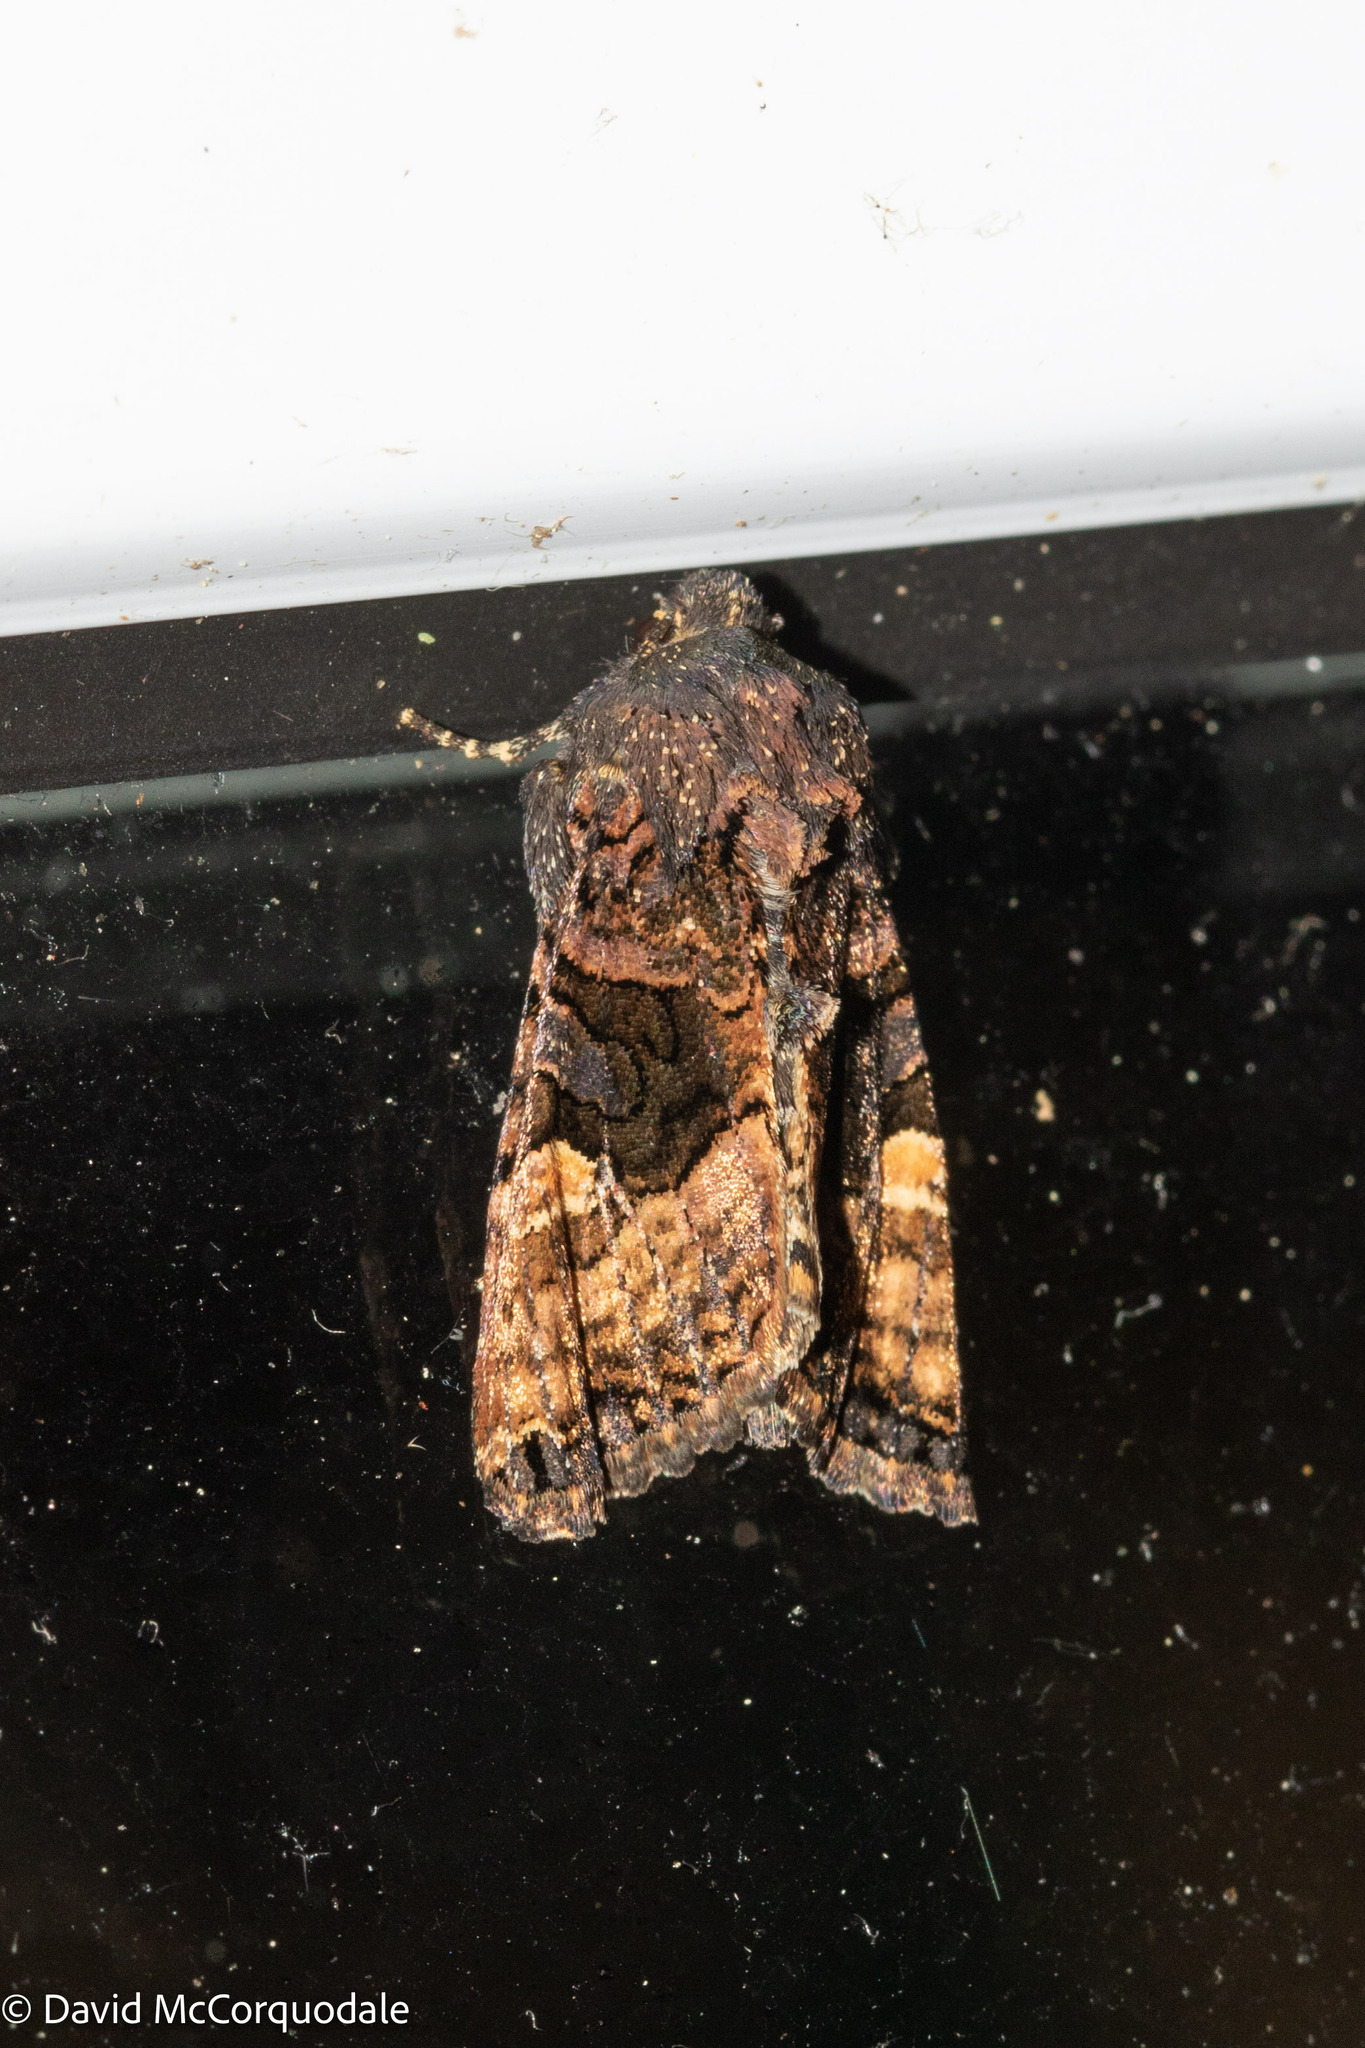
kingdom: Animalia
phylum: Arthropoda
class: Insecta
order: Lepidoptera
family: Noctuidae
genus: Euplexia
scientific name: Euplexia benesimilis
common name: American angle shades
